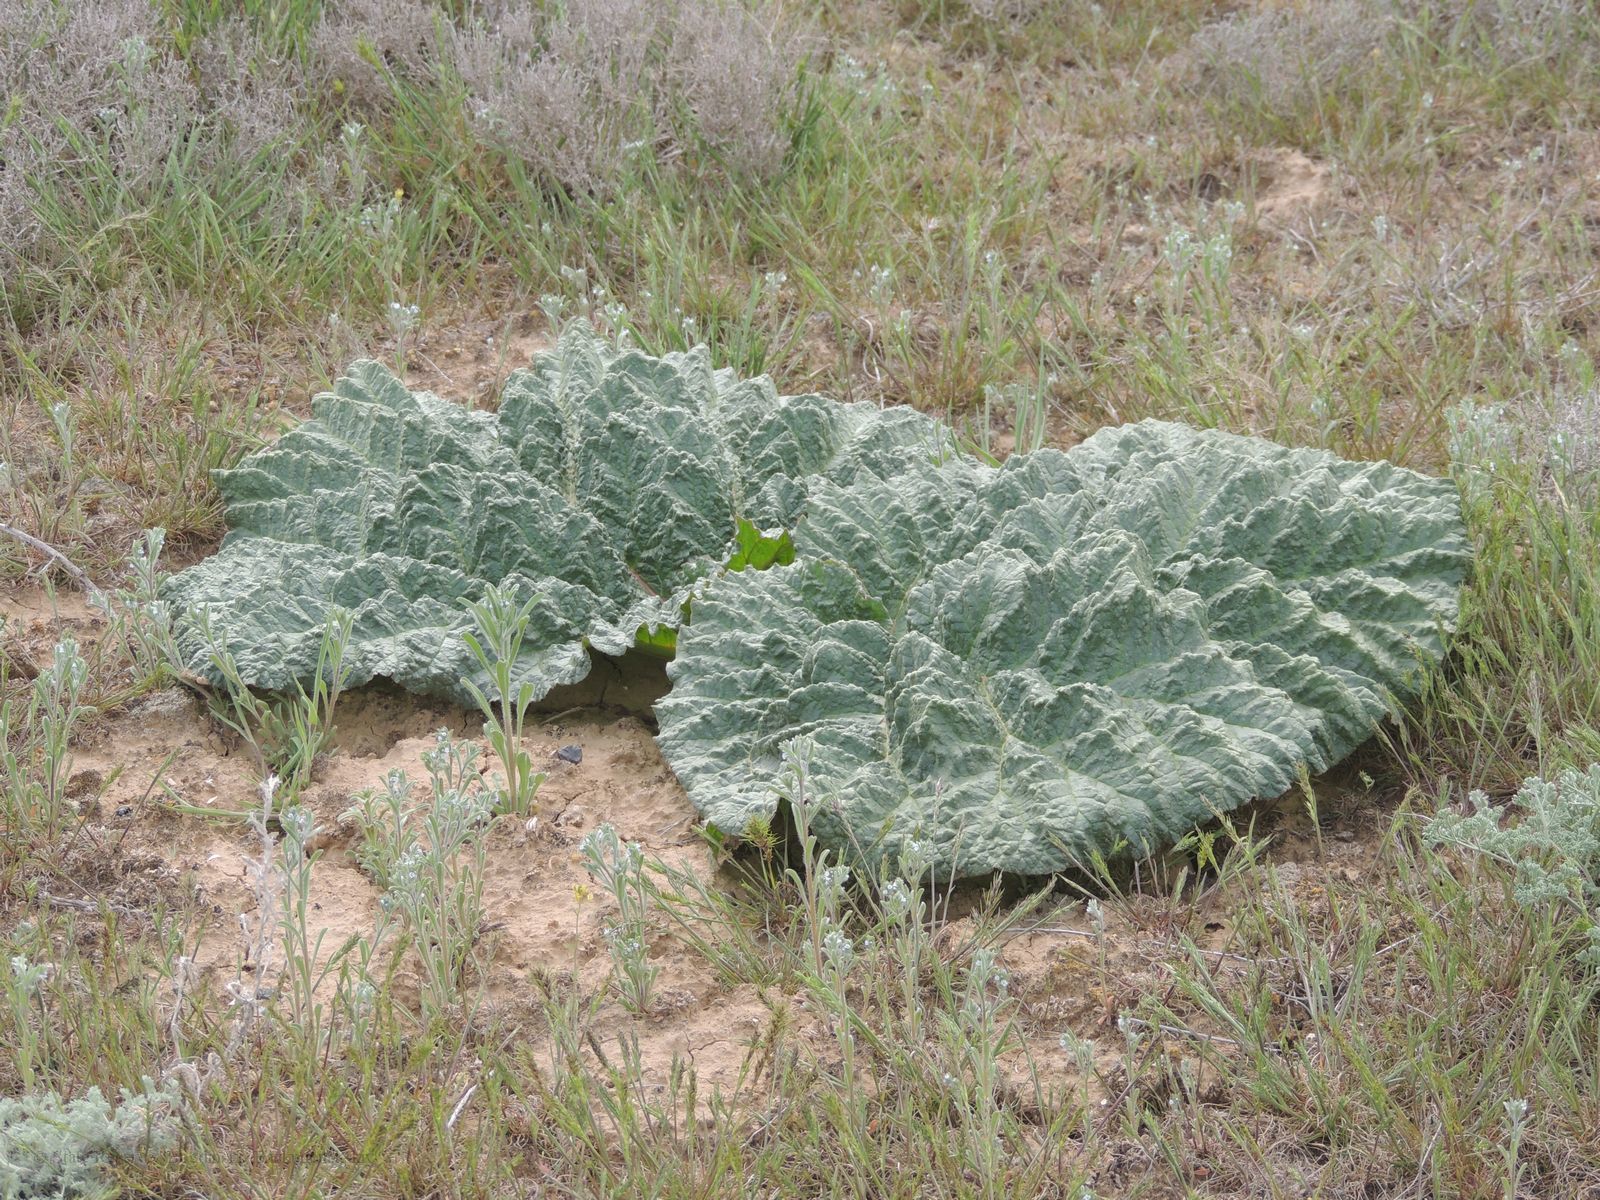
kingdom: Plantae
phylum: Tracheophyta
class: Magnoliopsida
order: Caryophyllales
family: Polygonaceae
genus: Rheum
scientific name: Rheum tataricum
